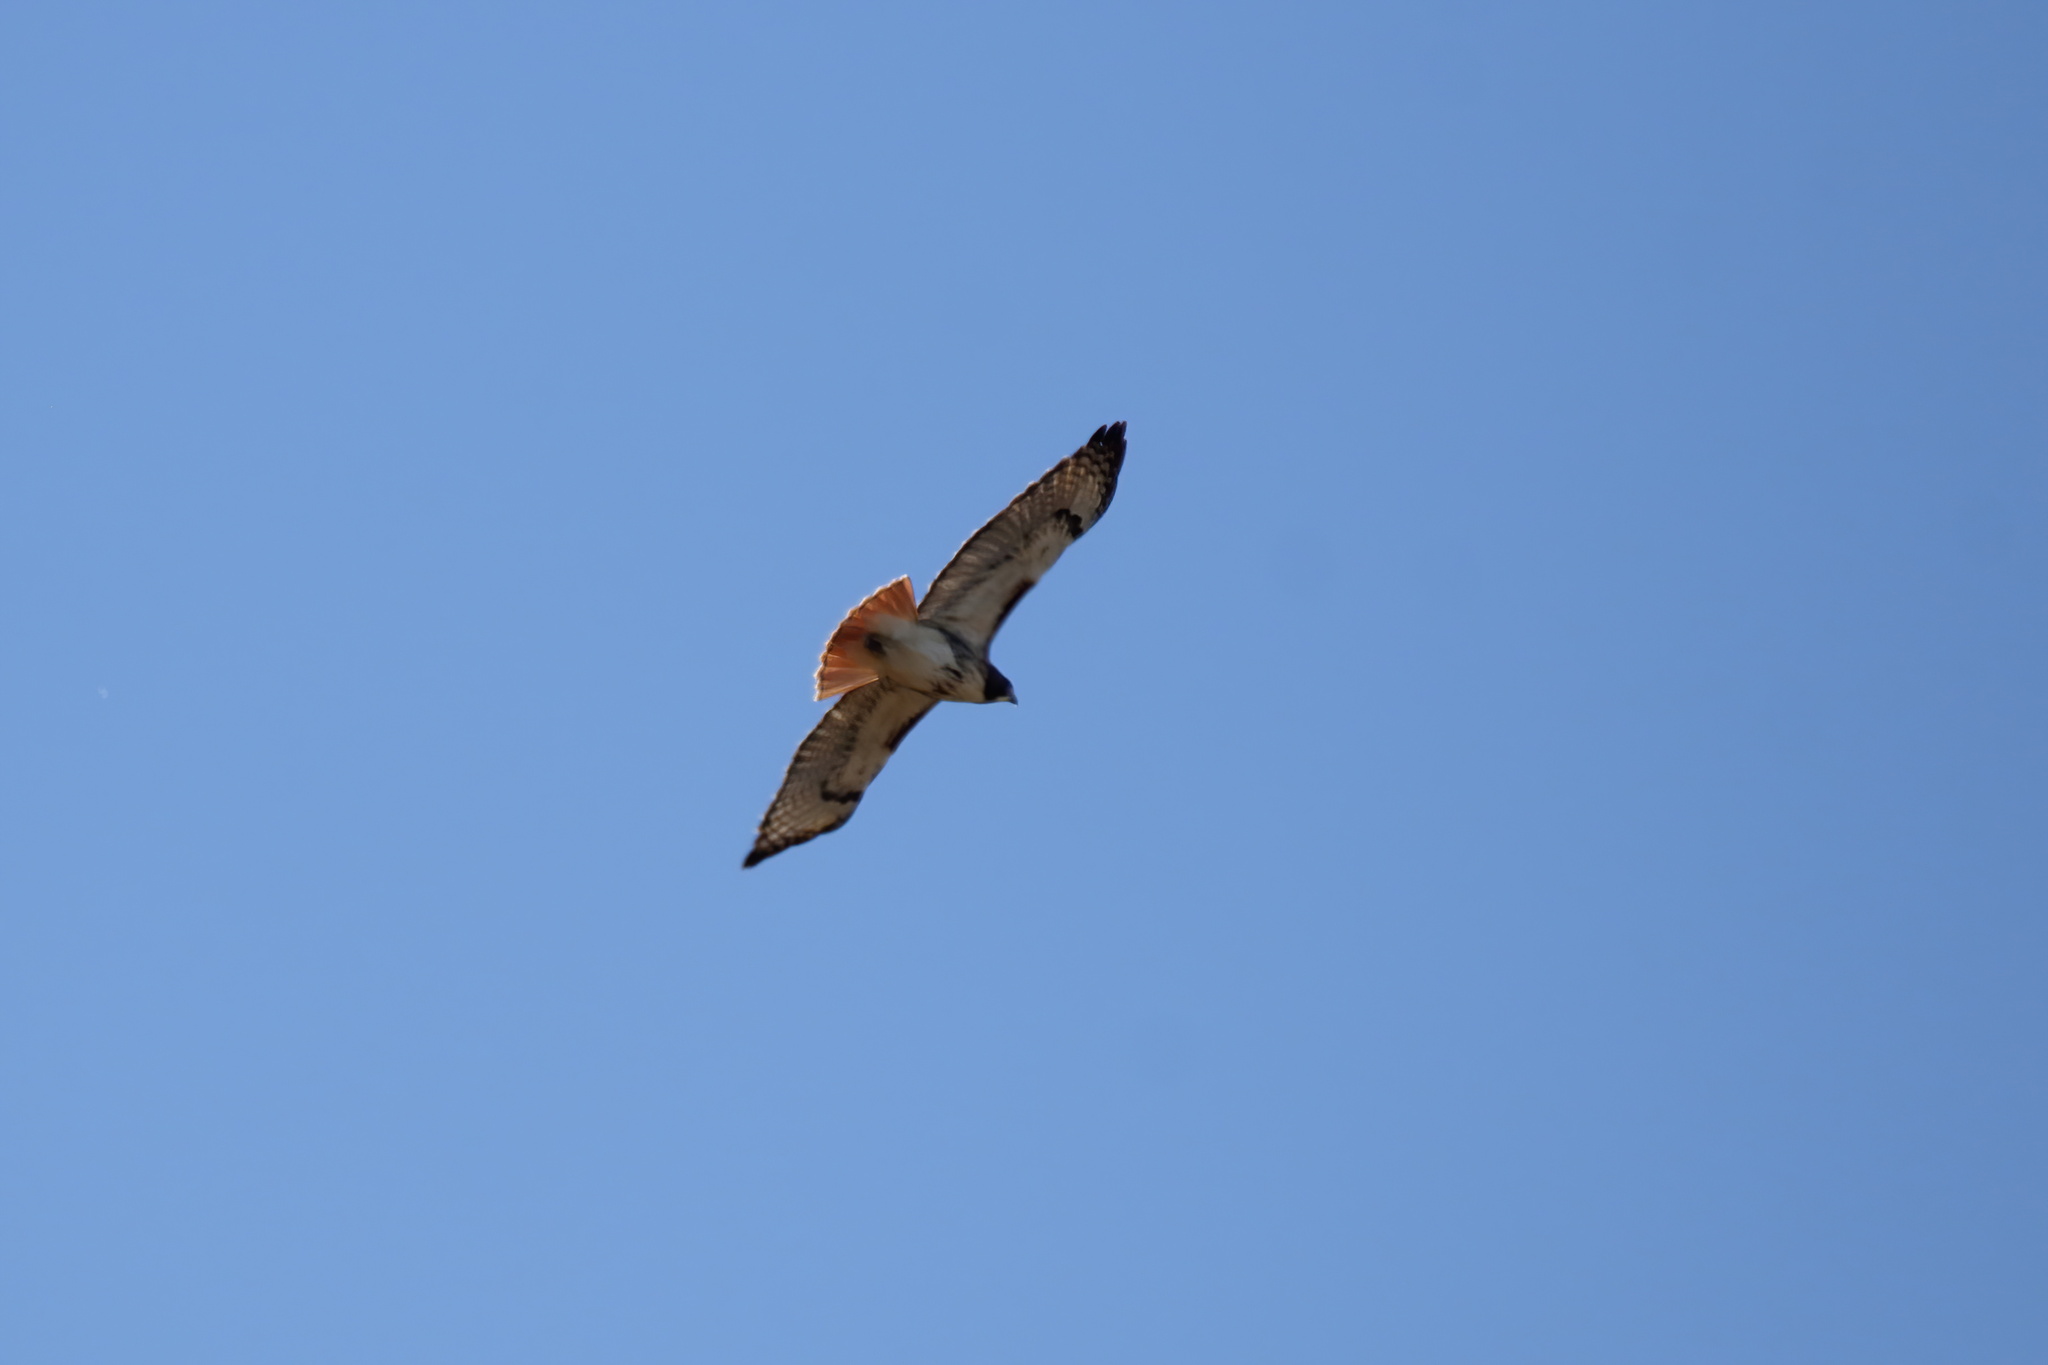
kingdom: Animalia
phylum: Chordata
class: Aves
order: Accipitriformes
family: Accipitridae
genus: Buteo
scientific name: Buteo jamaicensis
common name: Red-tailed hawk
